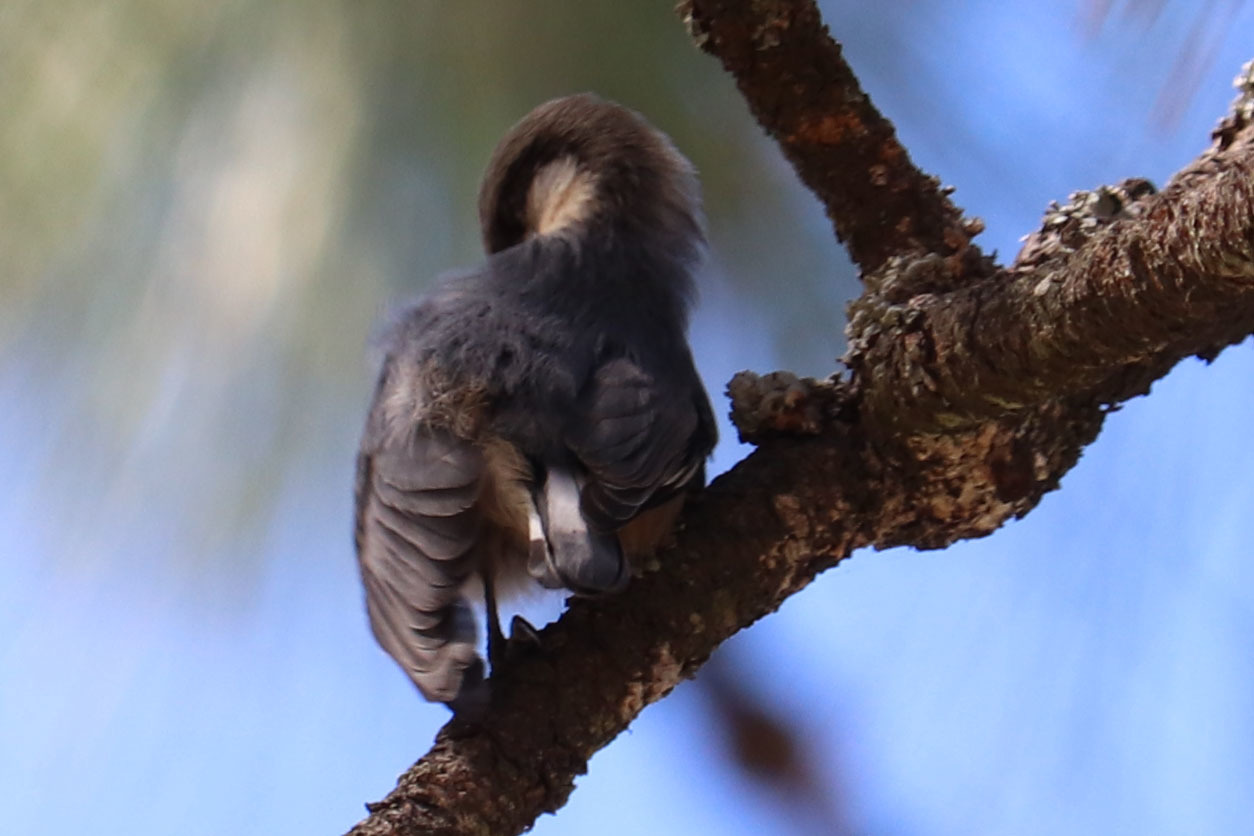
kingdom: Animalia
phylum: Chordata
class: Aves
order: Passeriformes
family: Sittidae
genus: Sitta
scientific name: Sitta pygmaea
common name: Pygmy nuthatch
